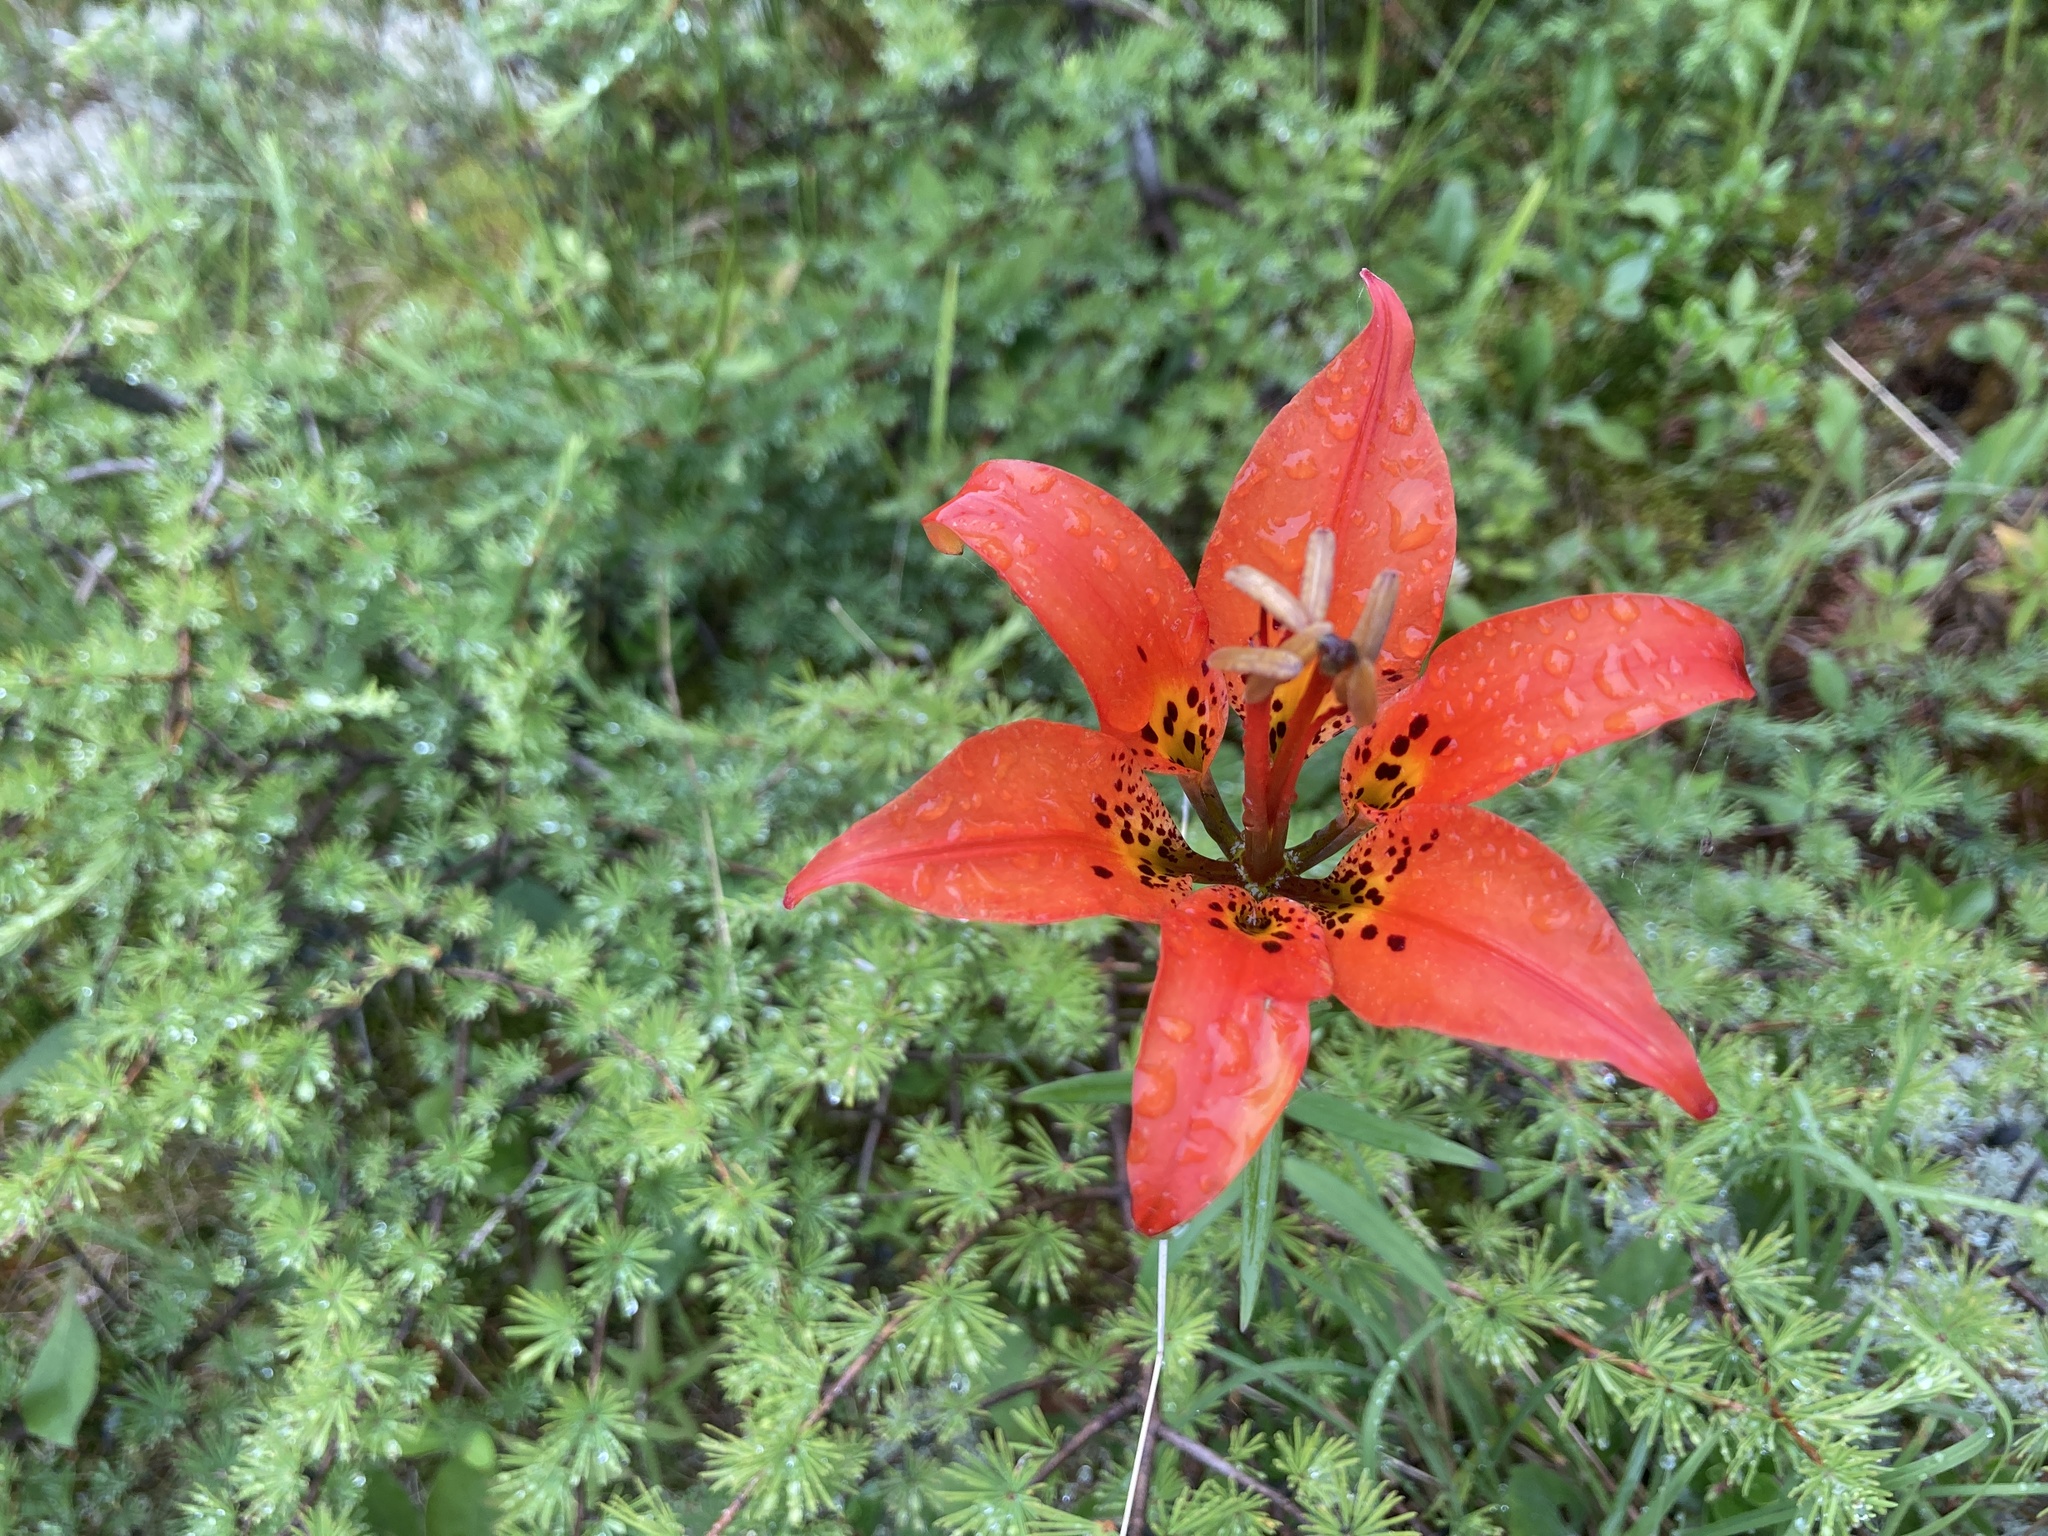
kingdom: Plantae
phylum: Tracheophyta
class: Liliopsida
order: Liliales
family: Liliaceae
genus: Lilium
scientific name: Lilium philadelphicum
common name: Red lily
